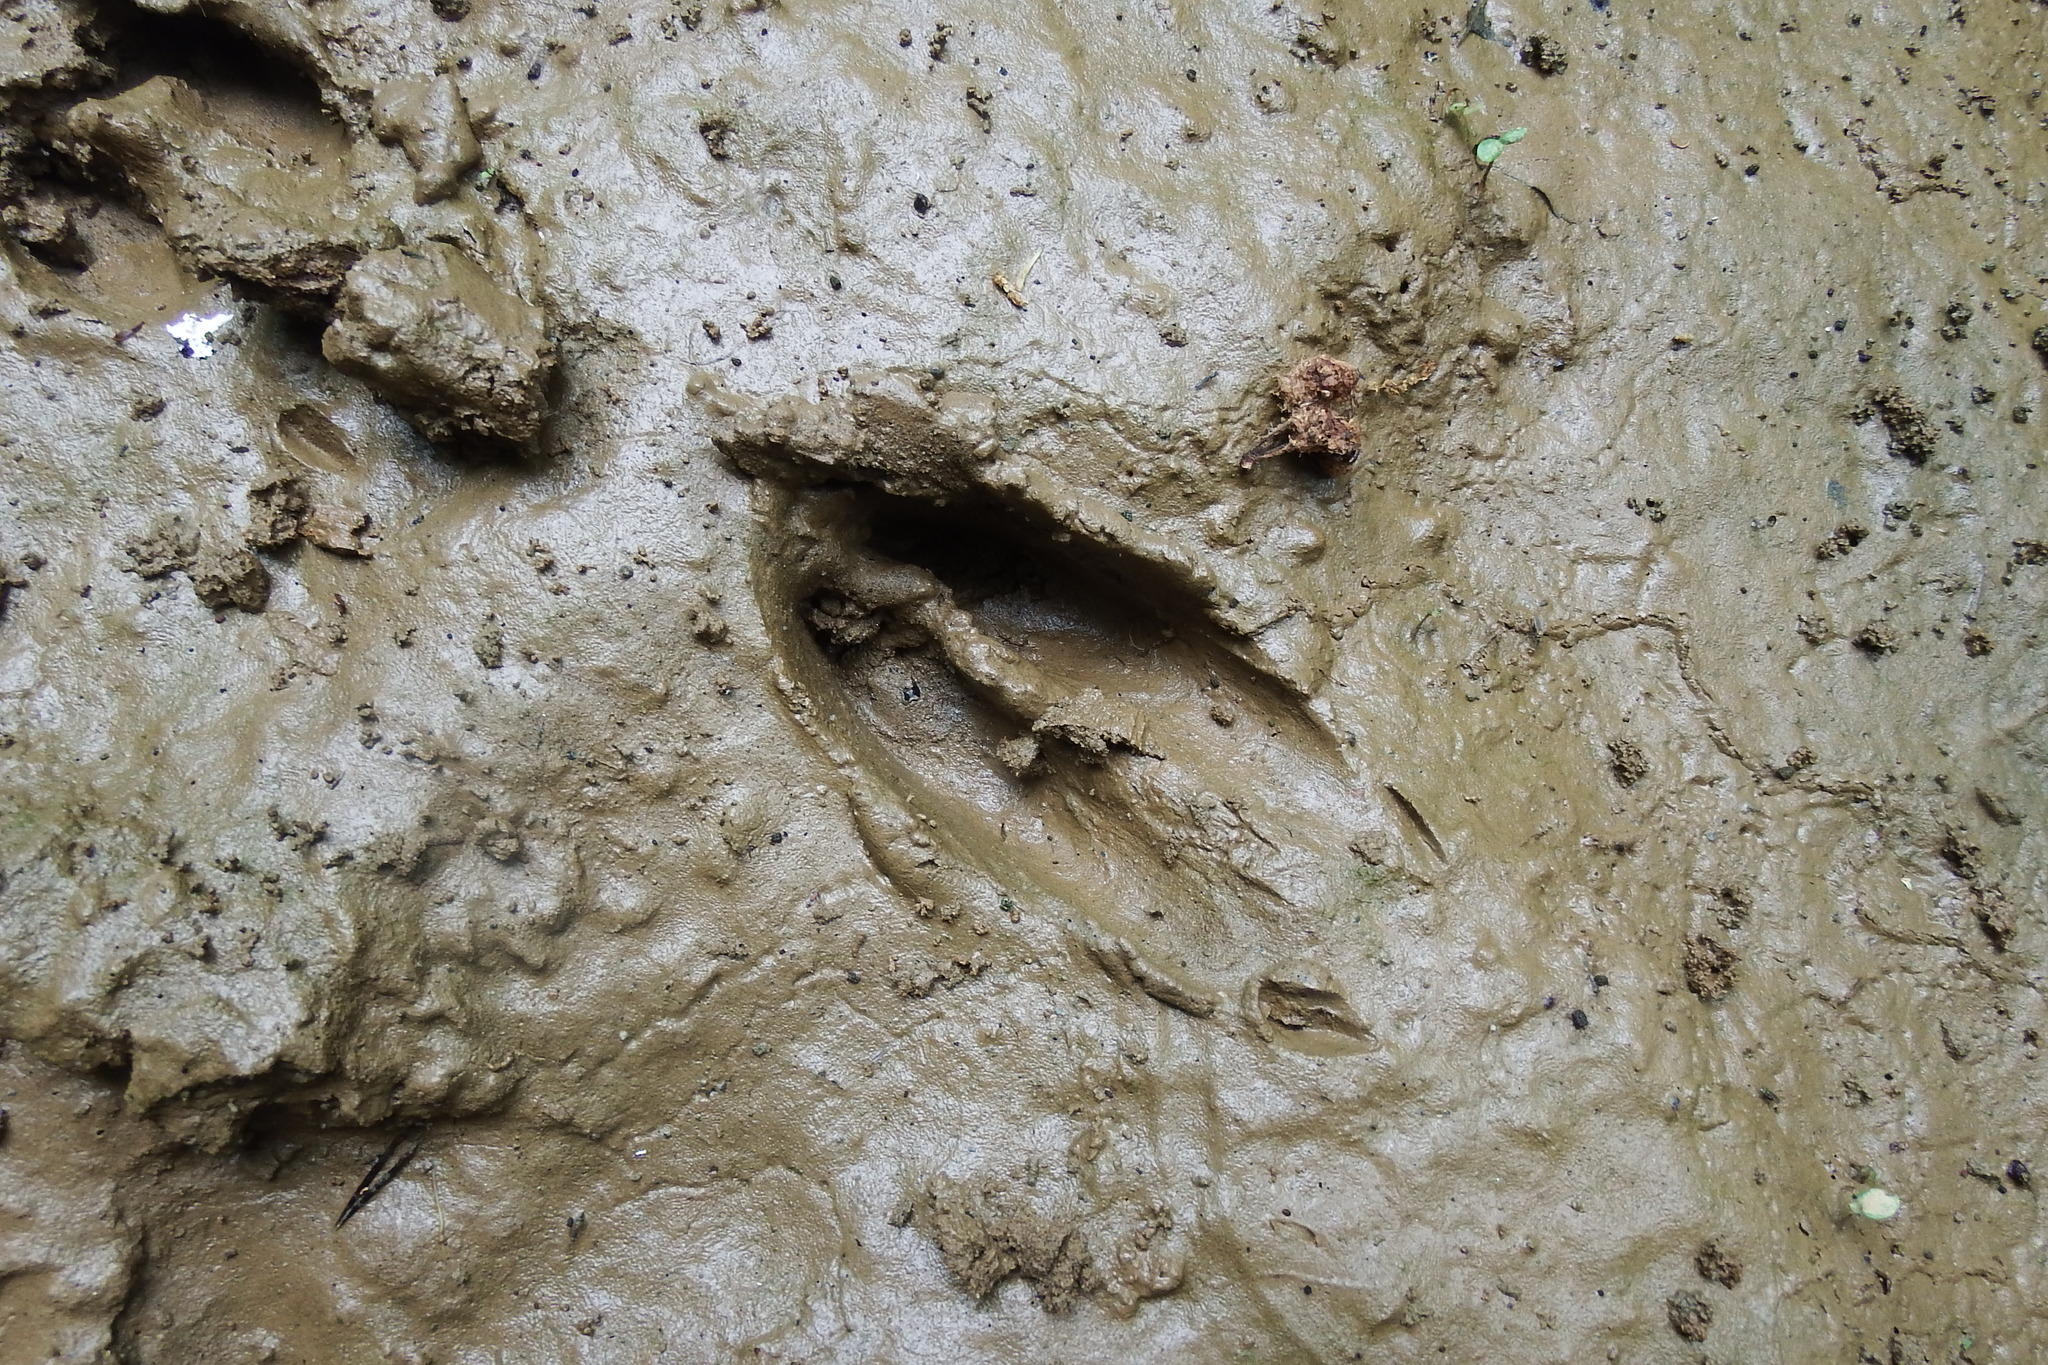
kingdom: Animalia
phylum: Chordata
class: Mammalia
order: Artiodactyla
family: Cervidae
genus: Odocoileus
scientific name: Odocoileus virginianus
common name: White-tailed deer
